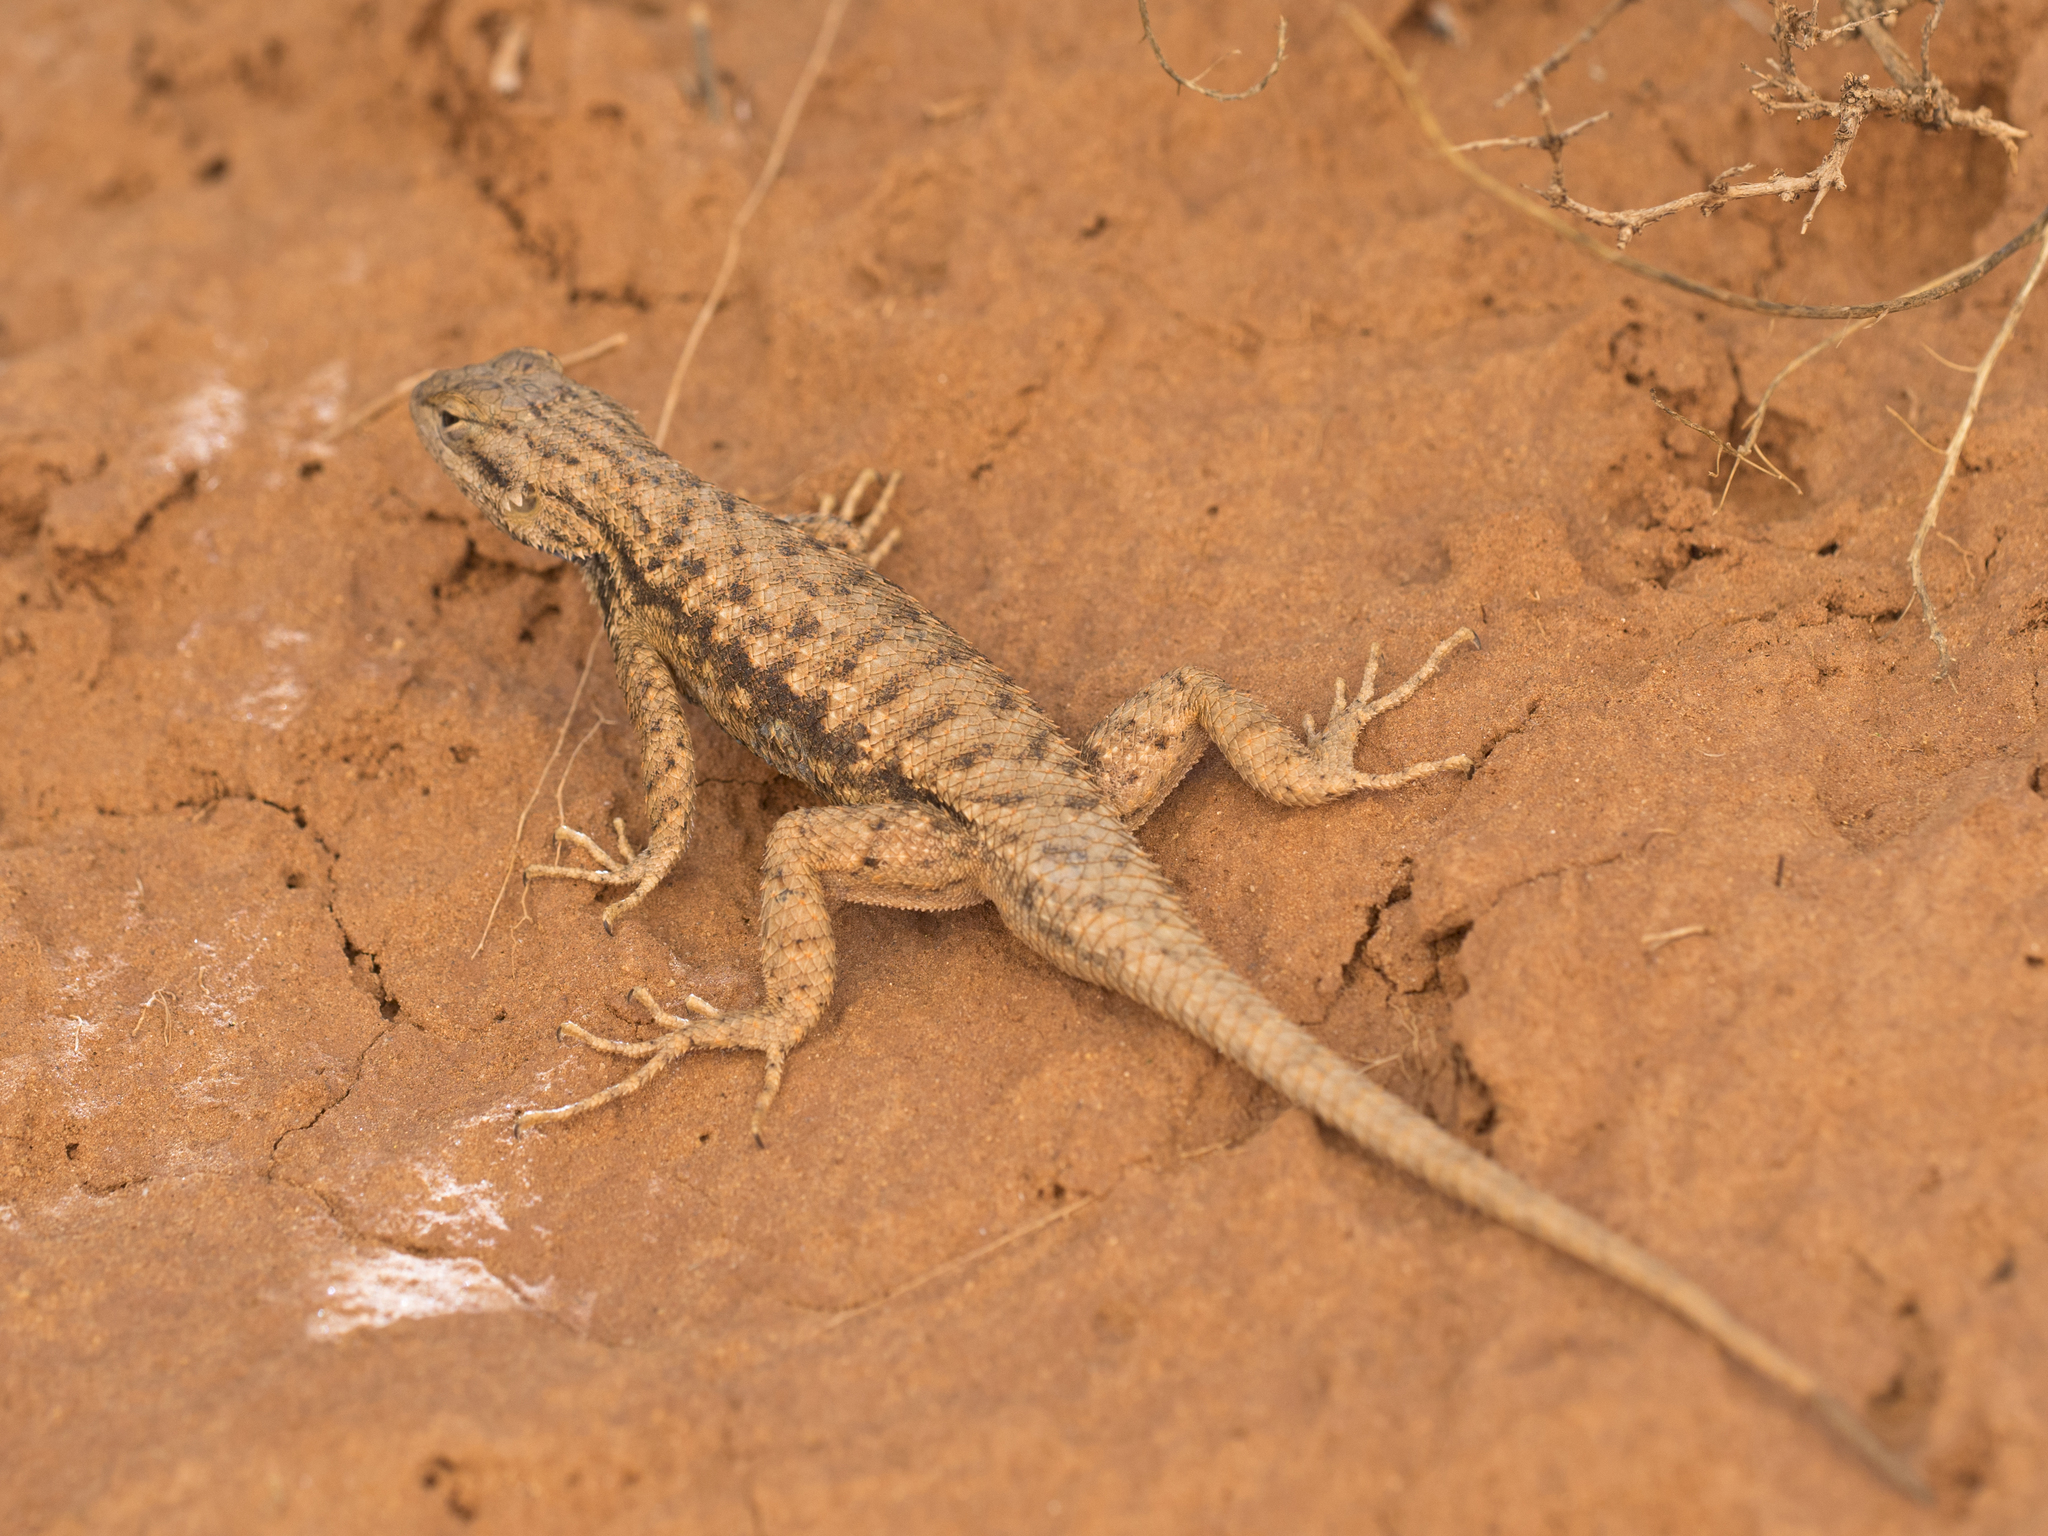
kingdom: Animalia
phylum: Chordata
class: Squamata
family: Phrynosomatidae
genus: Sceloporus
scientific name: Sceloporus tristichus
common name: Plateau fence lizard
